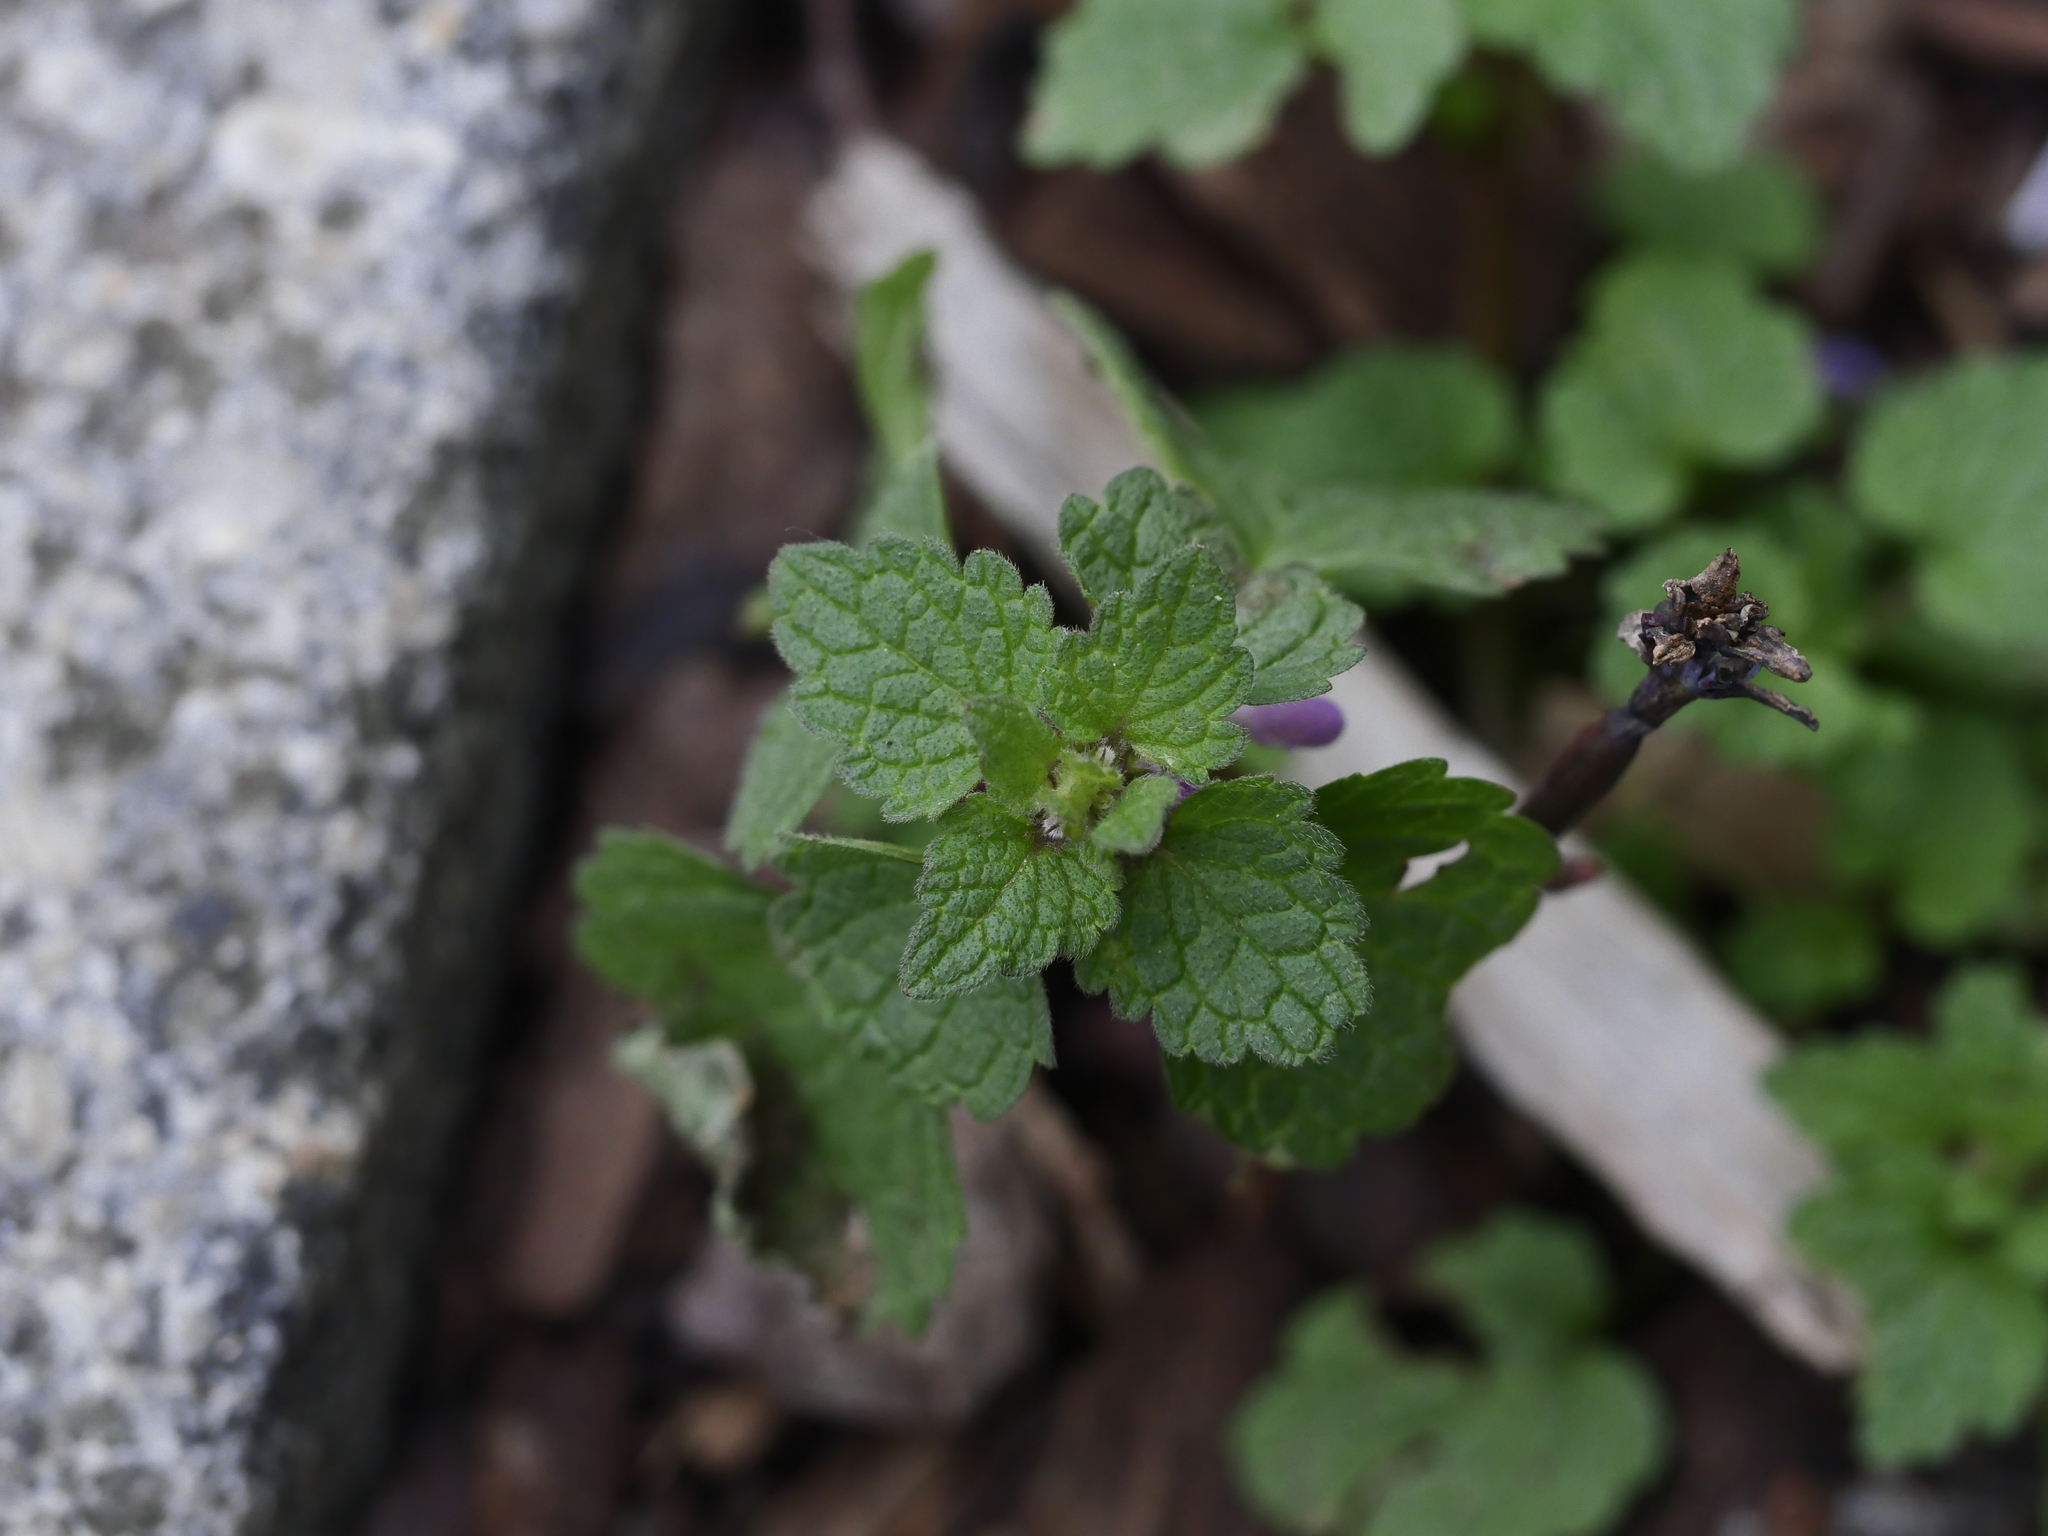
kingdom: Plantae
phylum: Tracheophyta
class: Magnoliopsida
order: Lamiales
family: Lamiaceae
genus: Lamium
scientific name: Lamium purpureum
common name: Red dead-nettle
